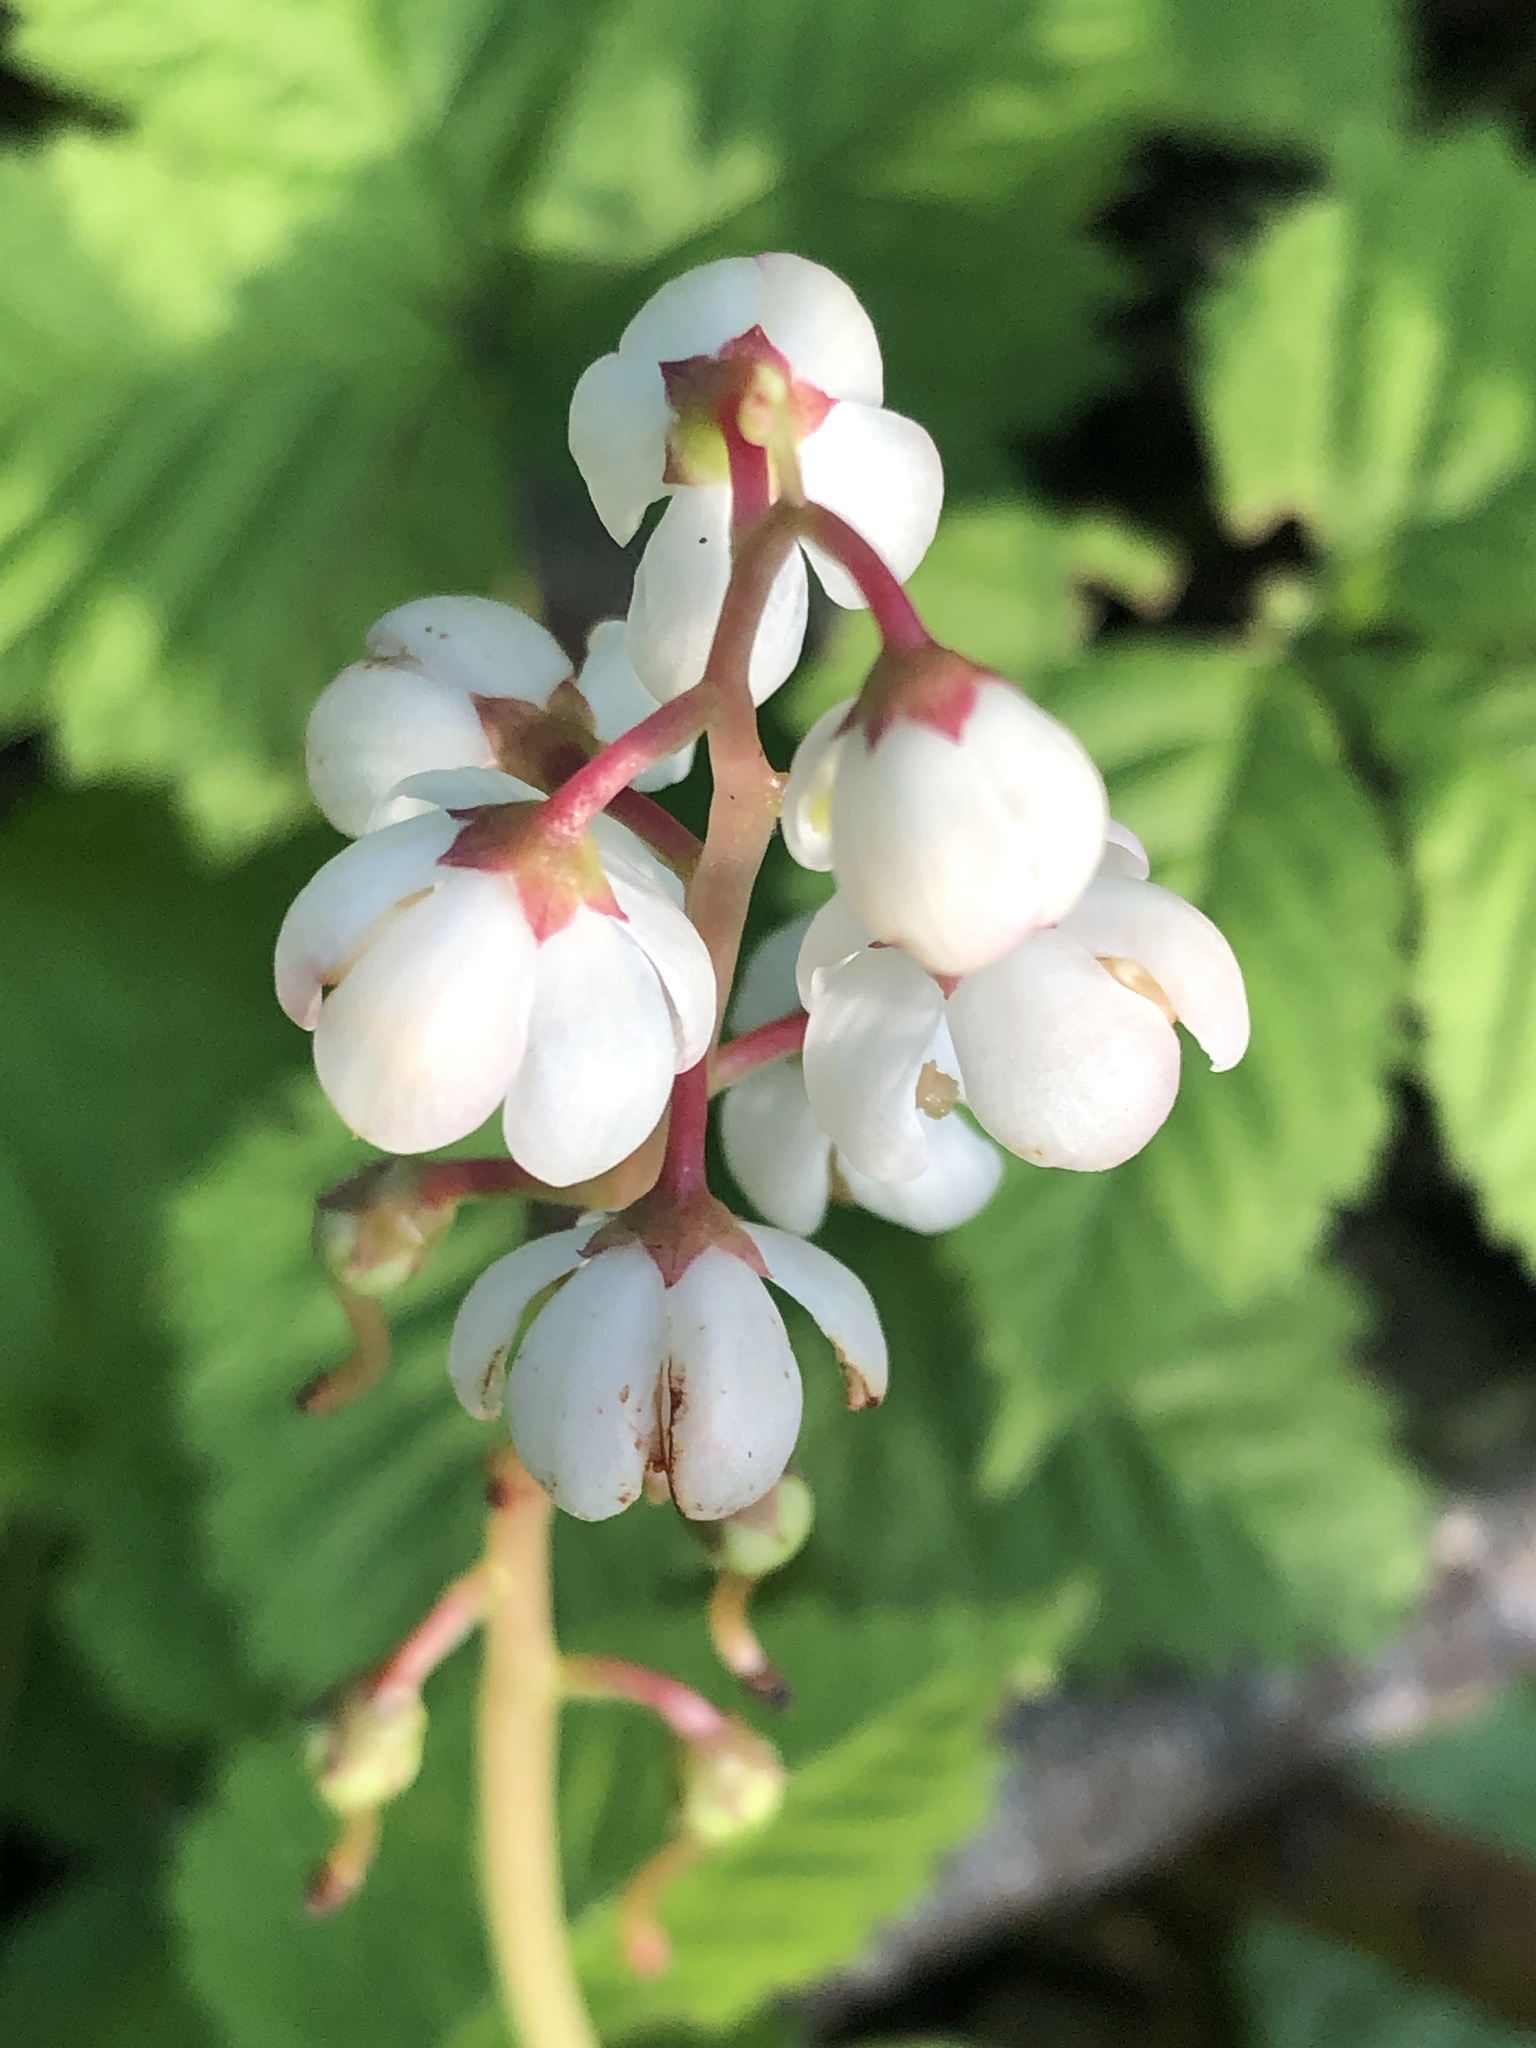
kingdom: Plantae
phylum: Tracheophyta
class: Magnoliopsida
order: Ericales
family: Ericaceae
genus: Pyrola
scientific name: Pyrola elliptica
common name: Shinleaf
